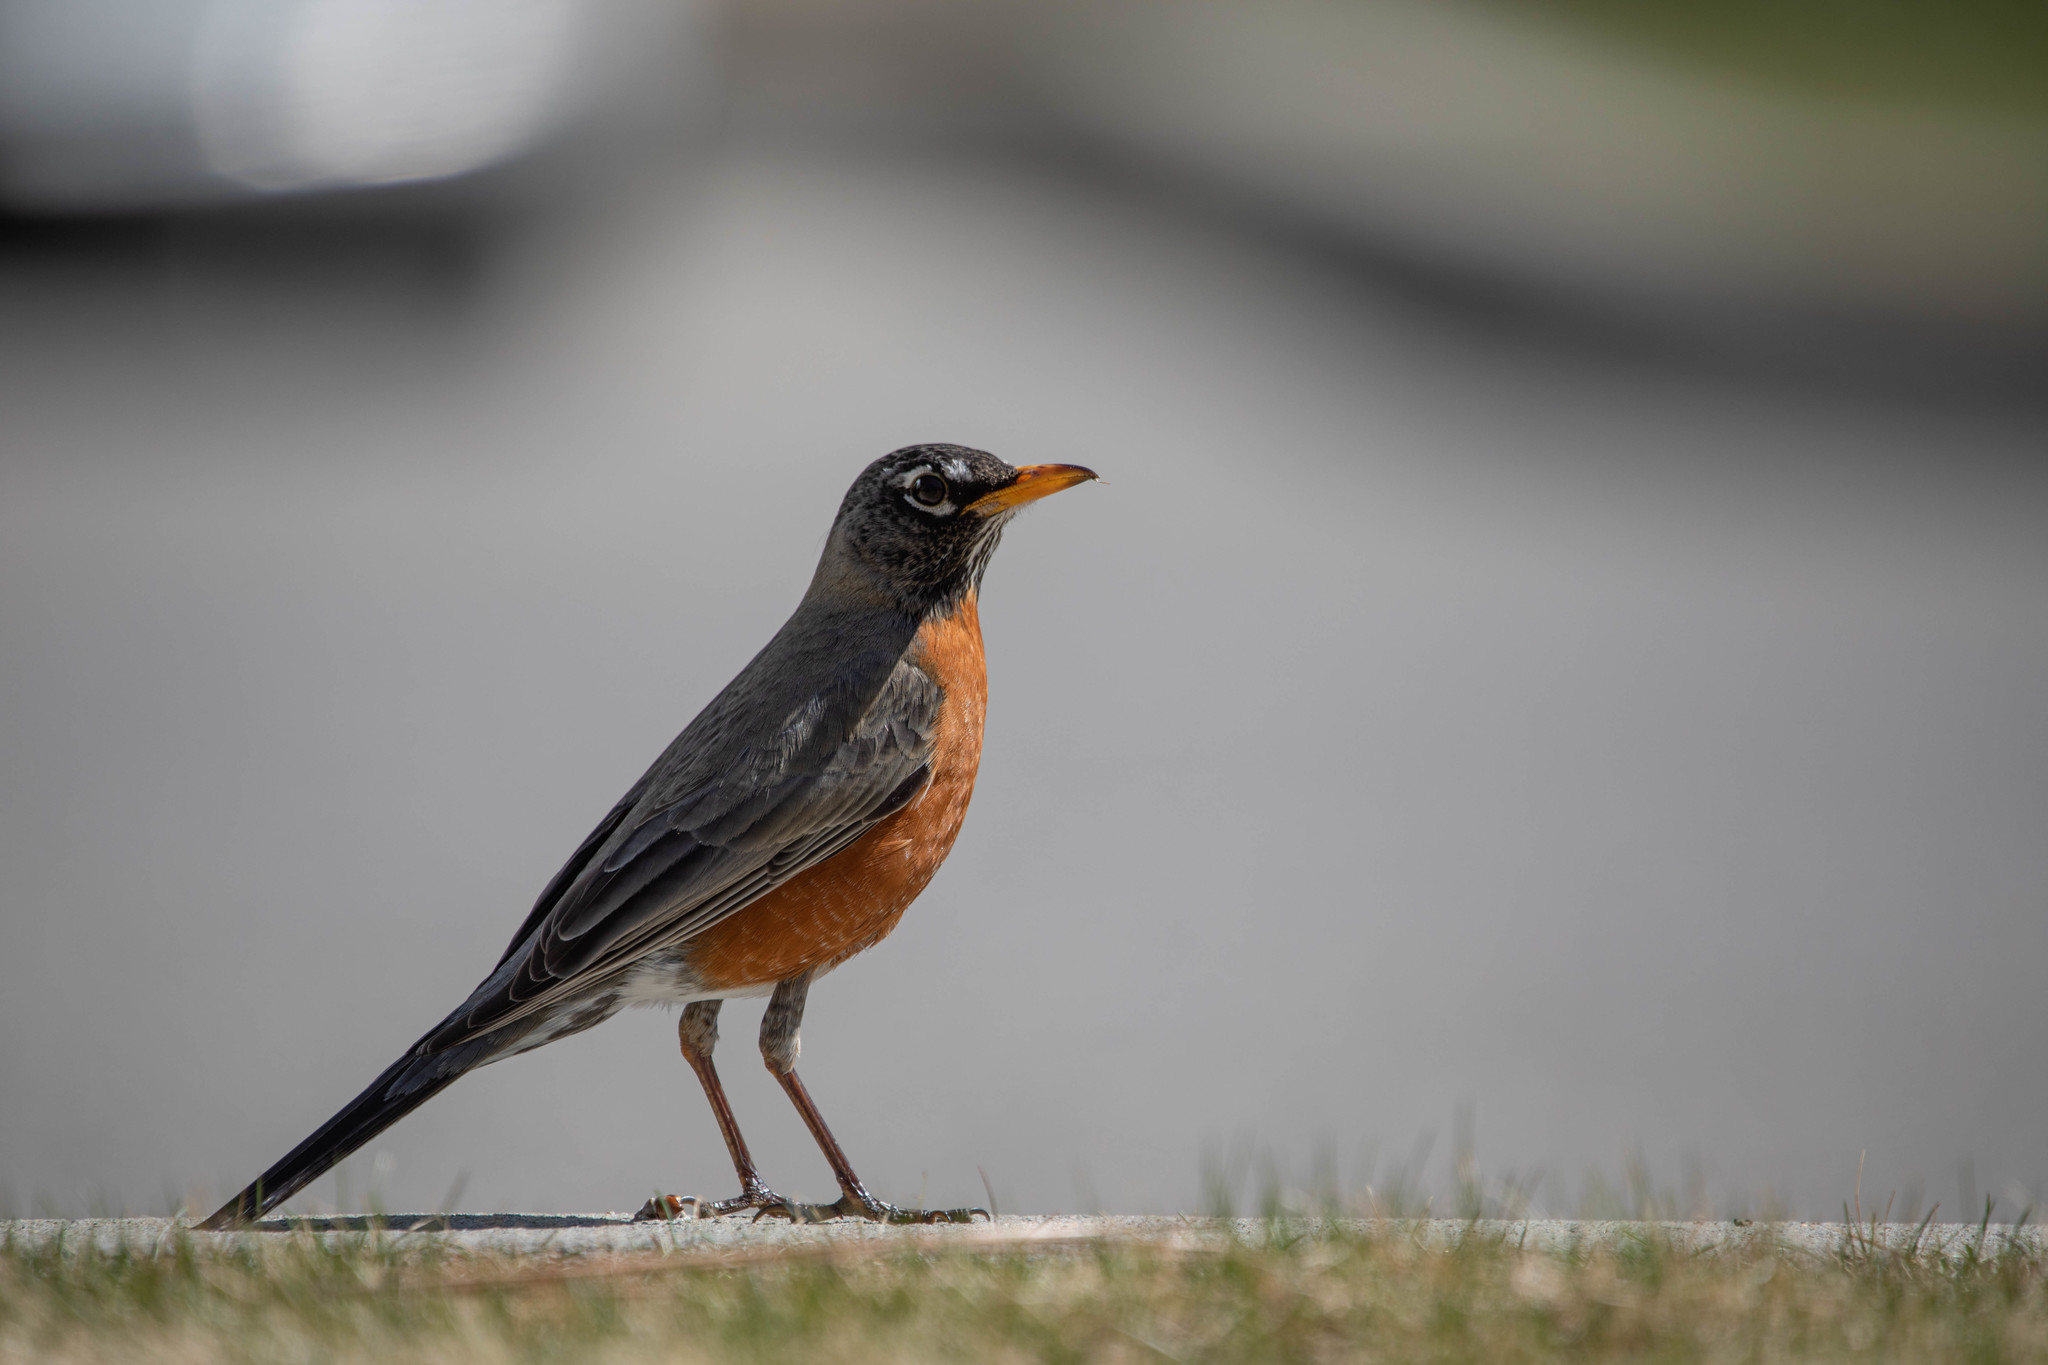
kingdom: Animalia
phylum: Chordata
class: Aves
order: Passeriformes
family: Turdidae
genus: Turdus
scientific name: Turdus migratorius
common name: American robin
